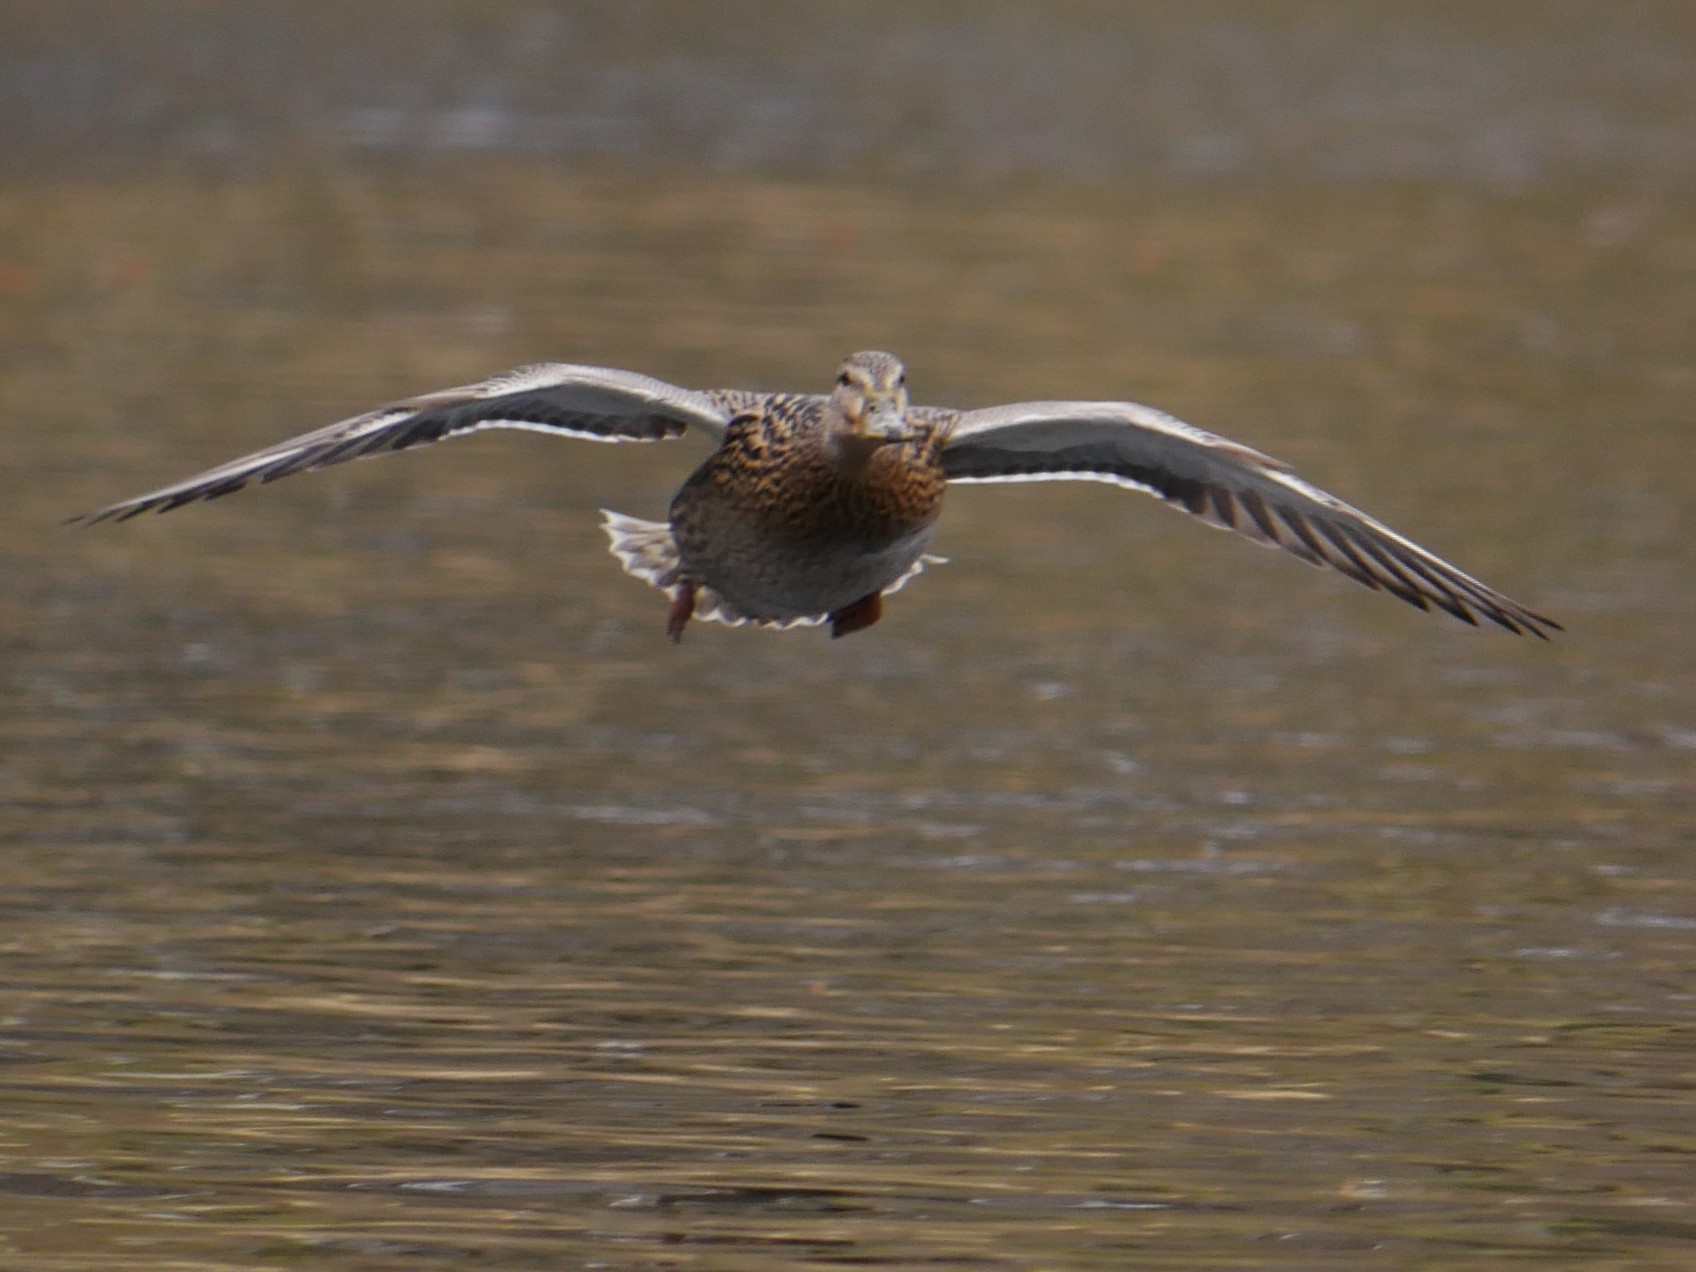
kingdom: Animalia
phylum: Chordata
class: Aves
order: Anseriformes
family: Anatidae
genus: Anas
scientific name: Anas platyrhynchos
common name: Mallard
